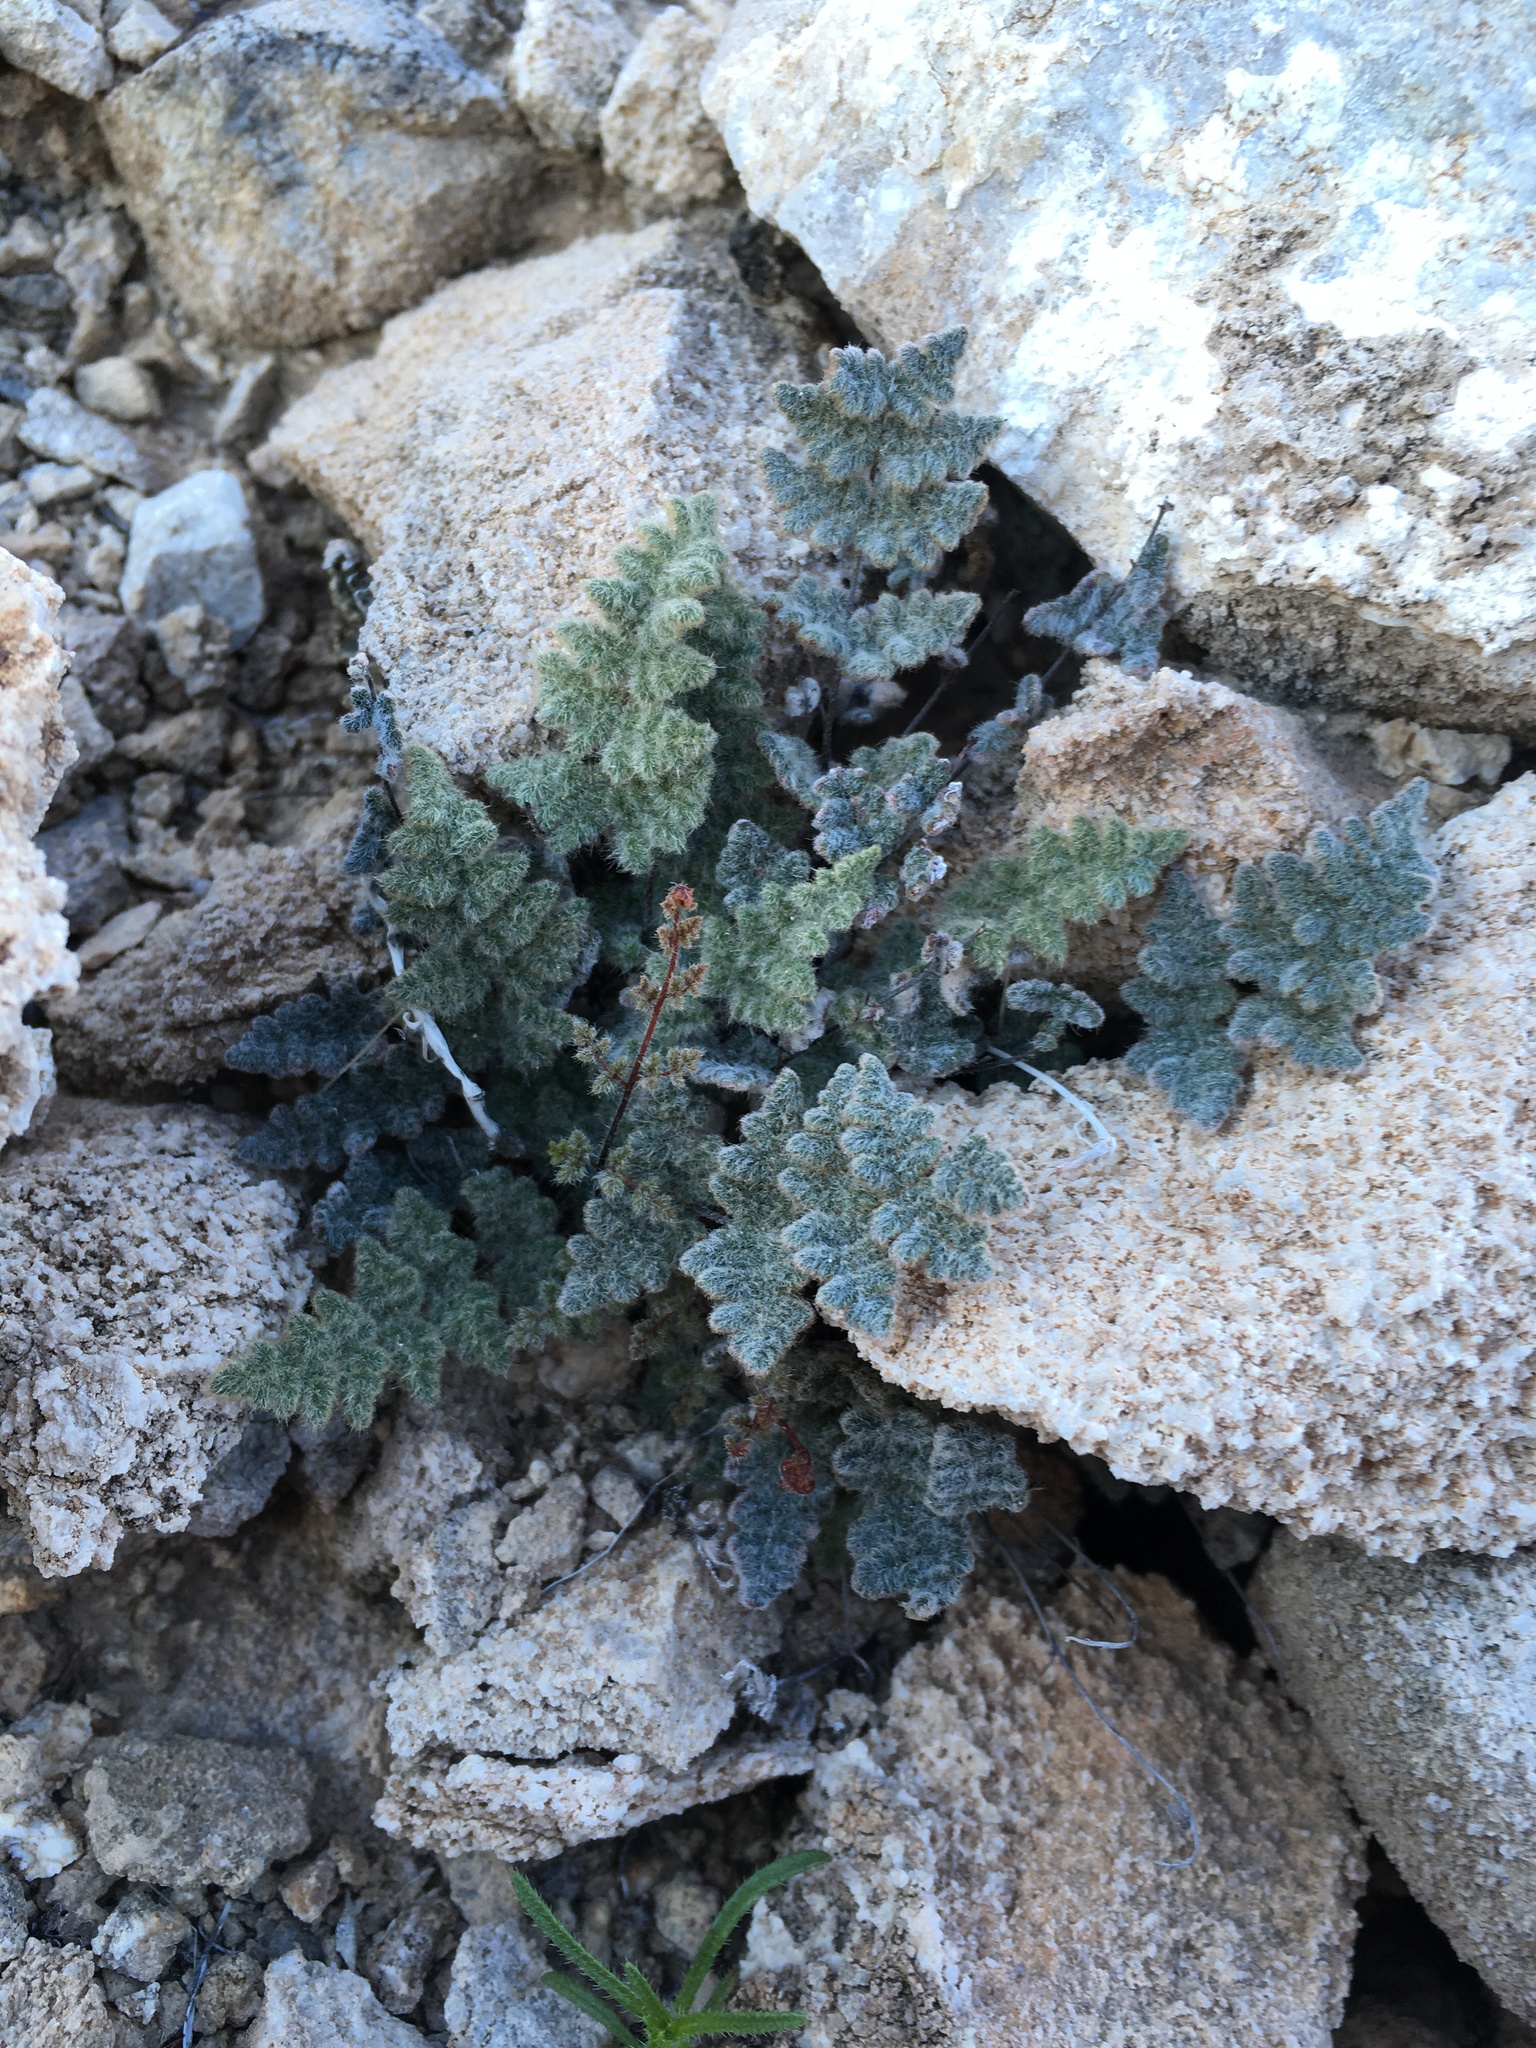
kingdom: Plantae
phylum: Tracheophyta
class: Polypodiopsida
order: Polypodiales
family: Pteridaceae
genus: Myriopteris
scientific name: Myriopteris parryi
